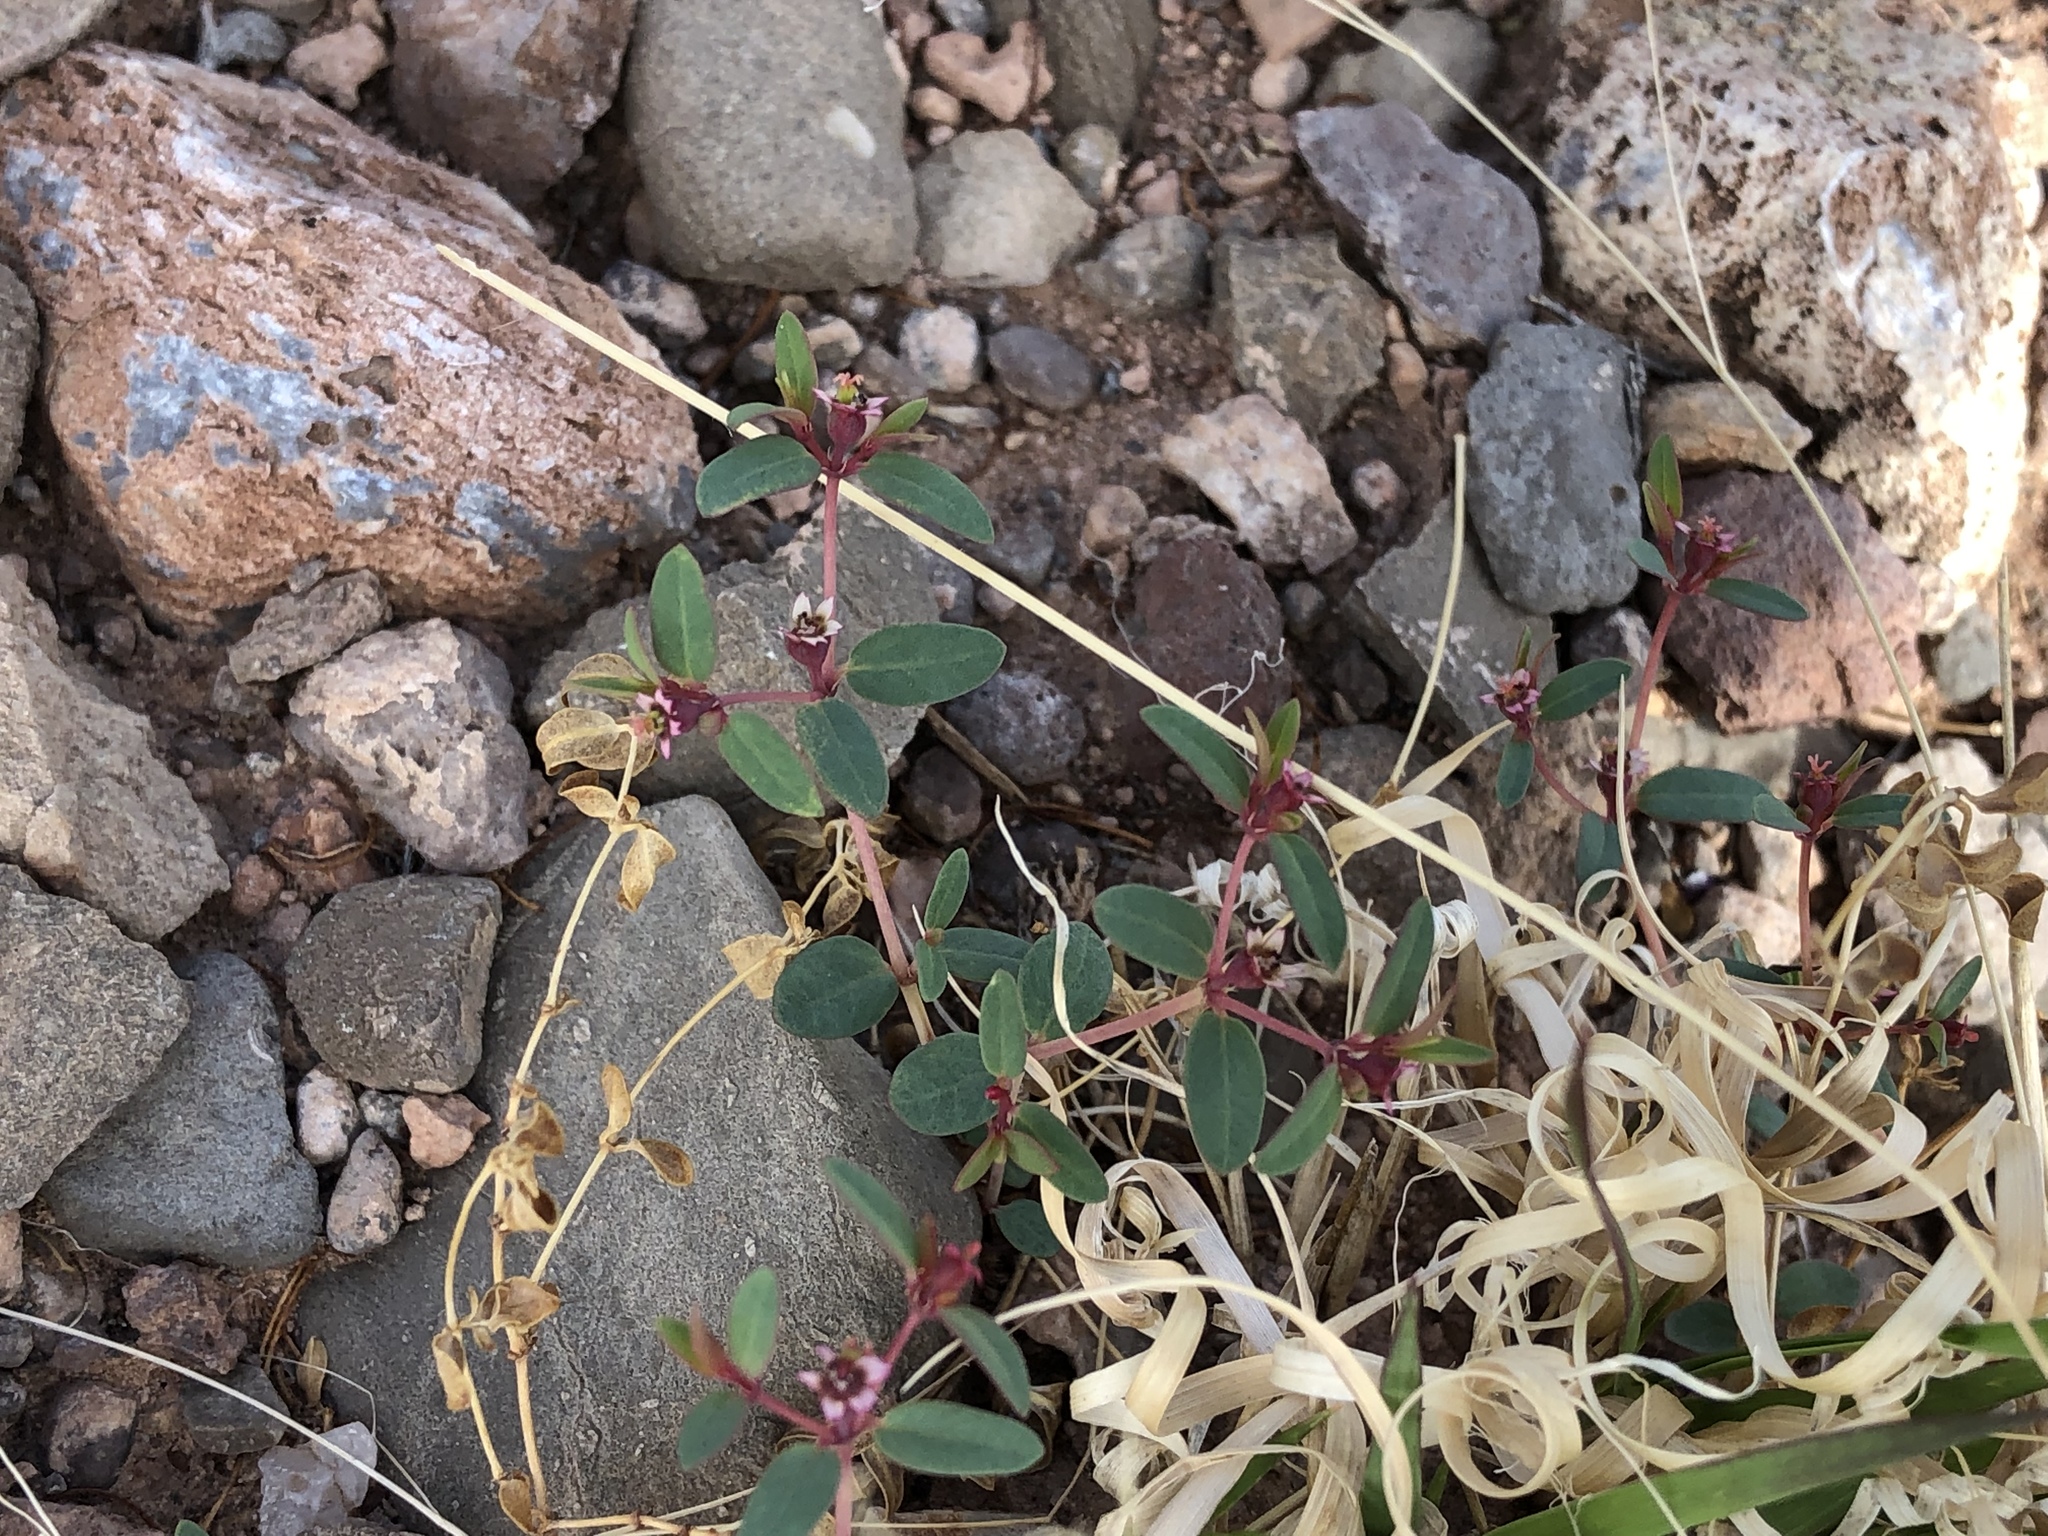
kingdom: Plantae
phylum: Tracheophyta
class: Magnoliopsida
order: Malpighiales
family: Euphorbiaceae
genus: Euphorbia
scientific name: Euphorbia chaetocalyx
